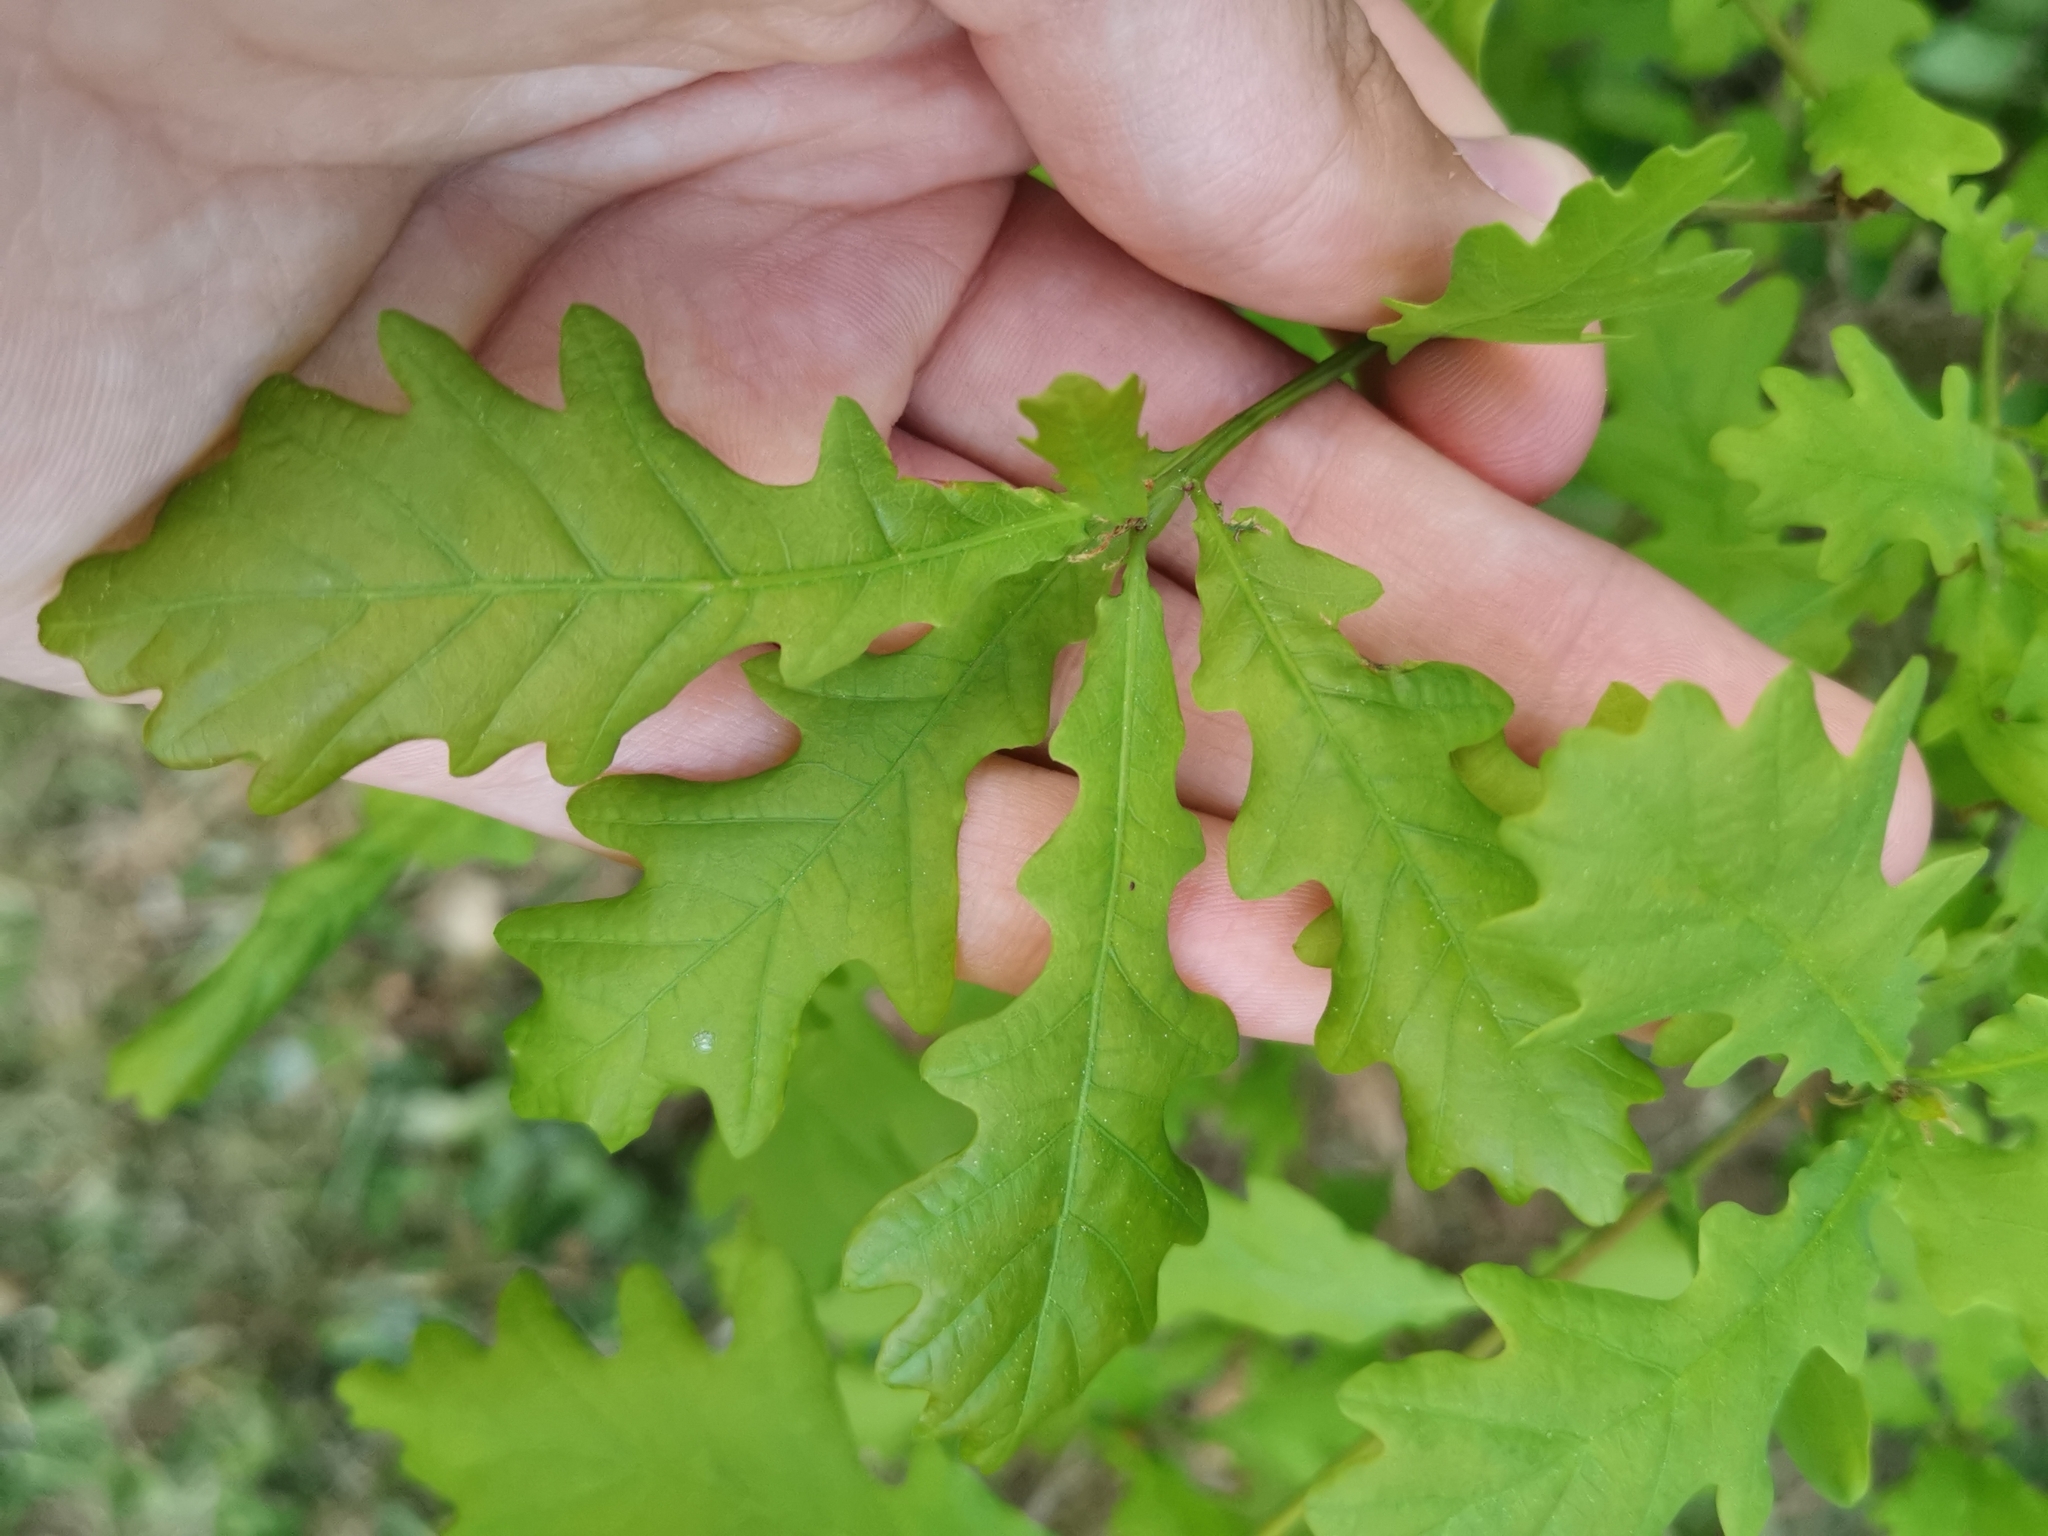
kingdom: Plantae
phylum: Tracheophyta
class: Magnoliopsida
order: Fagales
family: Fagaceae
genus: Quercus
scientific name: Quercus robur
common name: Pedunculate oak
